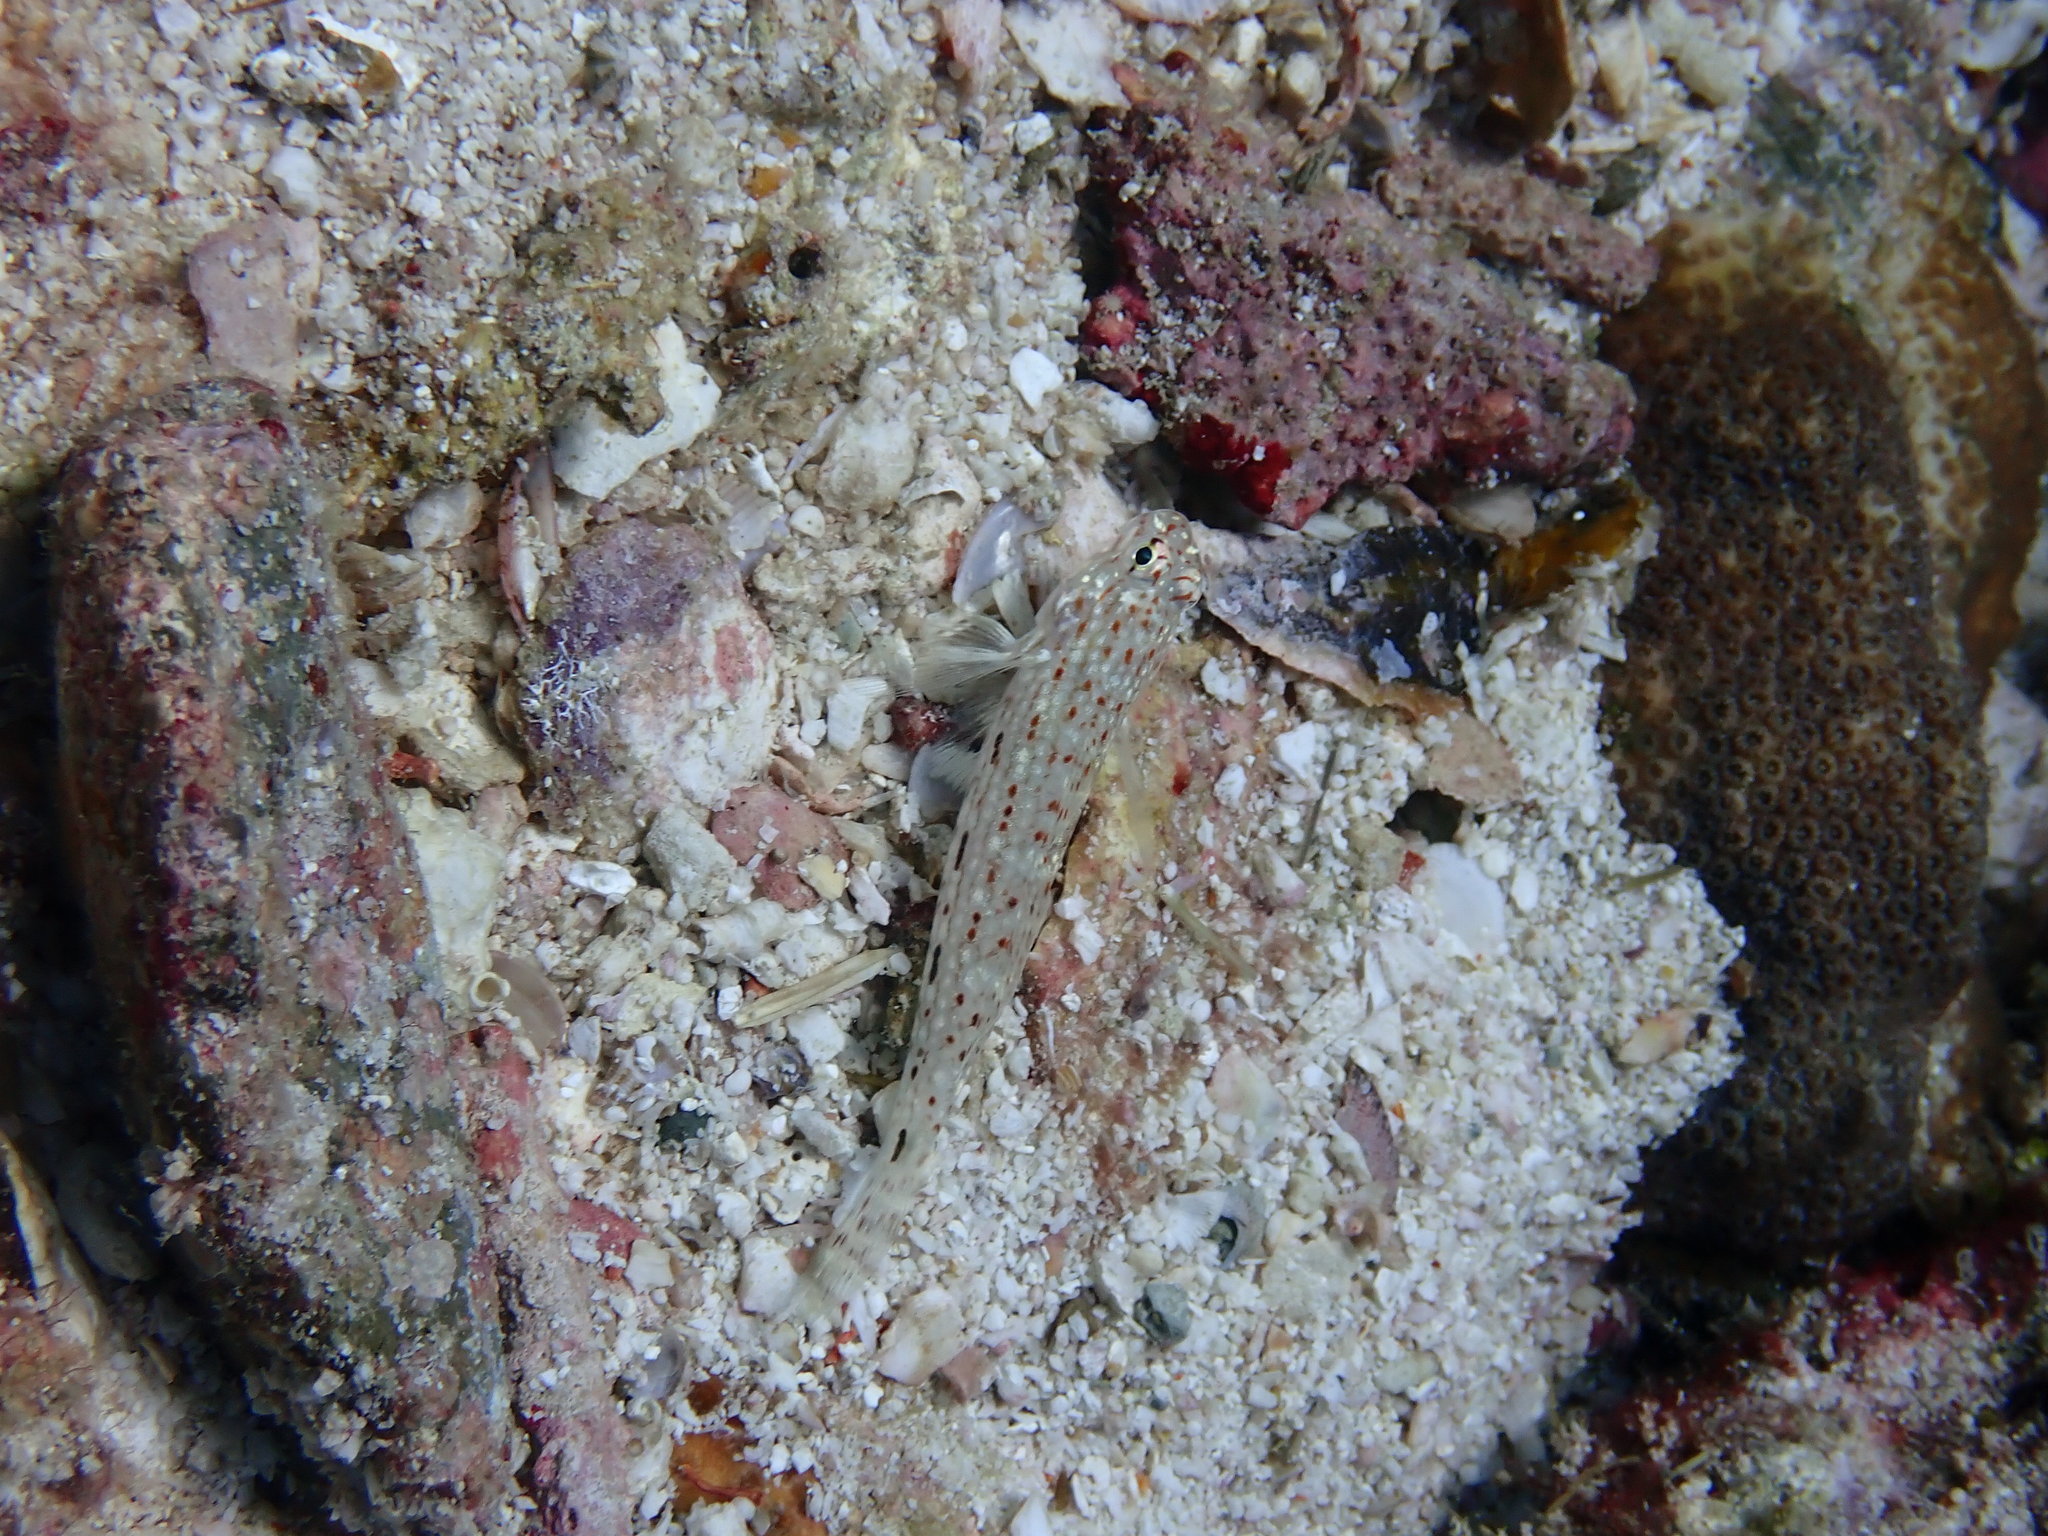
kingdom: Animalia
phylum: Chordata
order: Perciformes
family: Gobiidae
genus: Istigobius
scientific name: Istigobius decoratus
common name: Decorated goby
